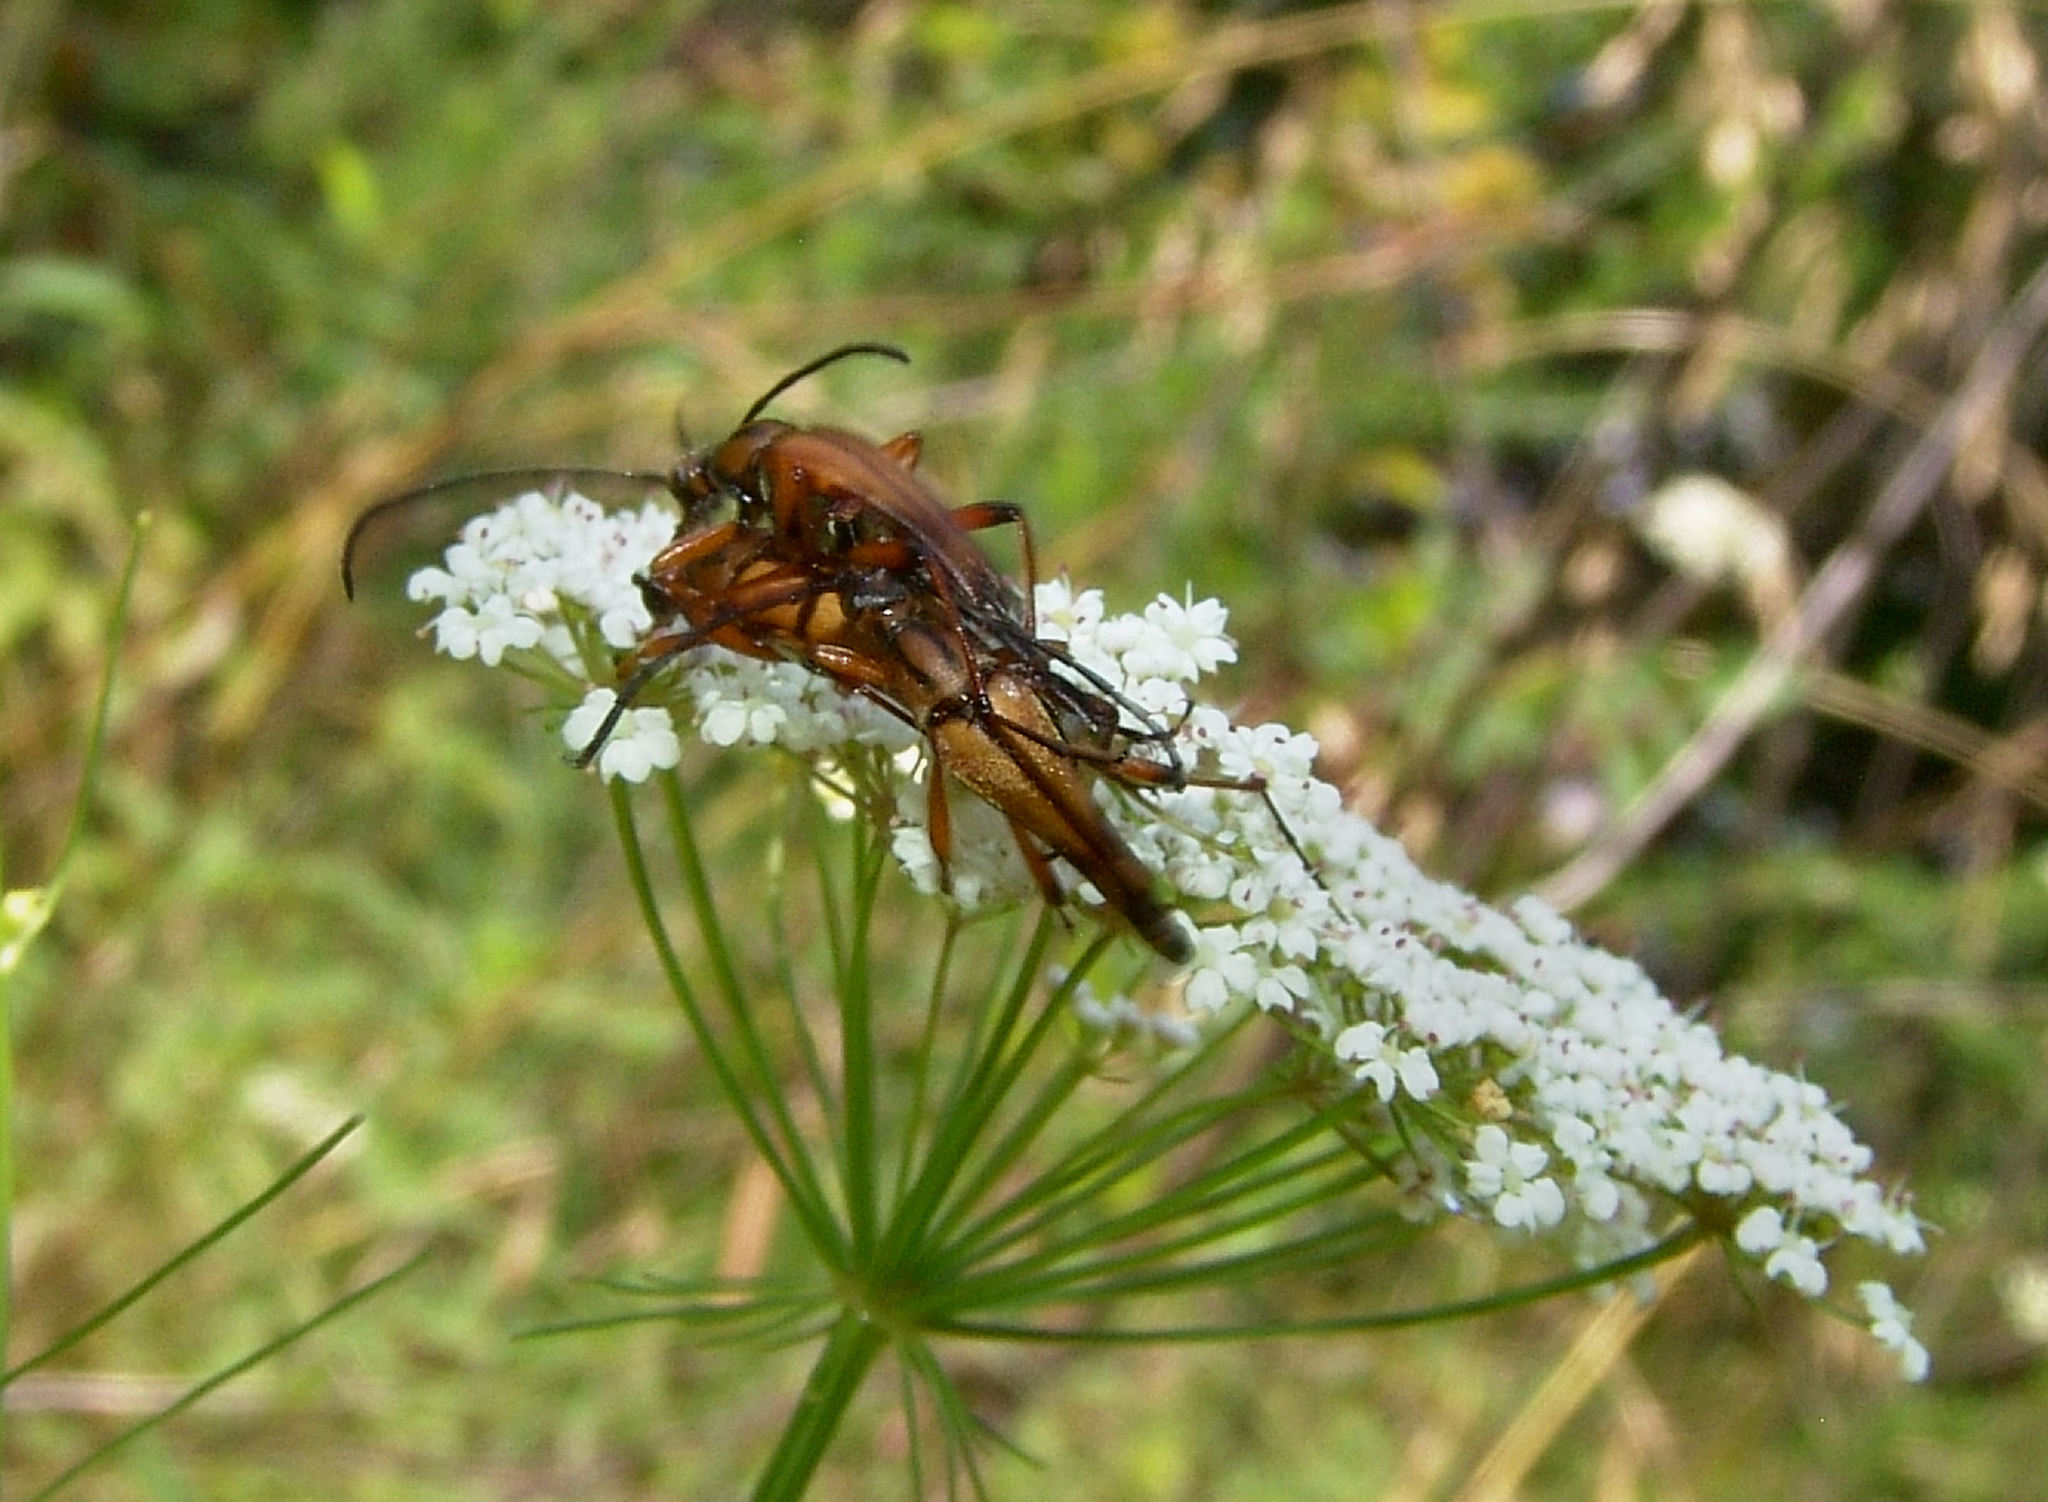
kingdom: Animalia
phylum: Arthropoda
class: Insecta
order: Coleoptera
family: Cerambycidae
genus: Strangalia
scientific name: Strangalia famelica
